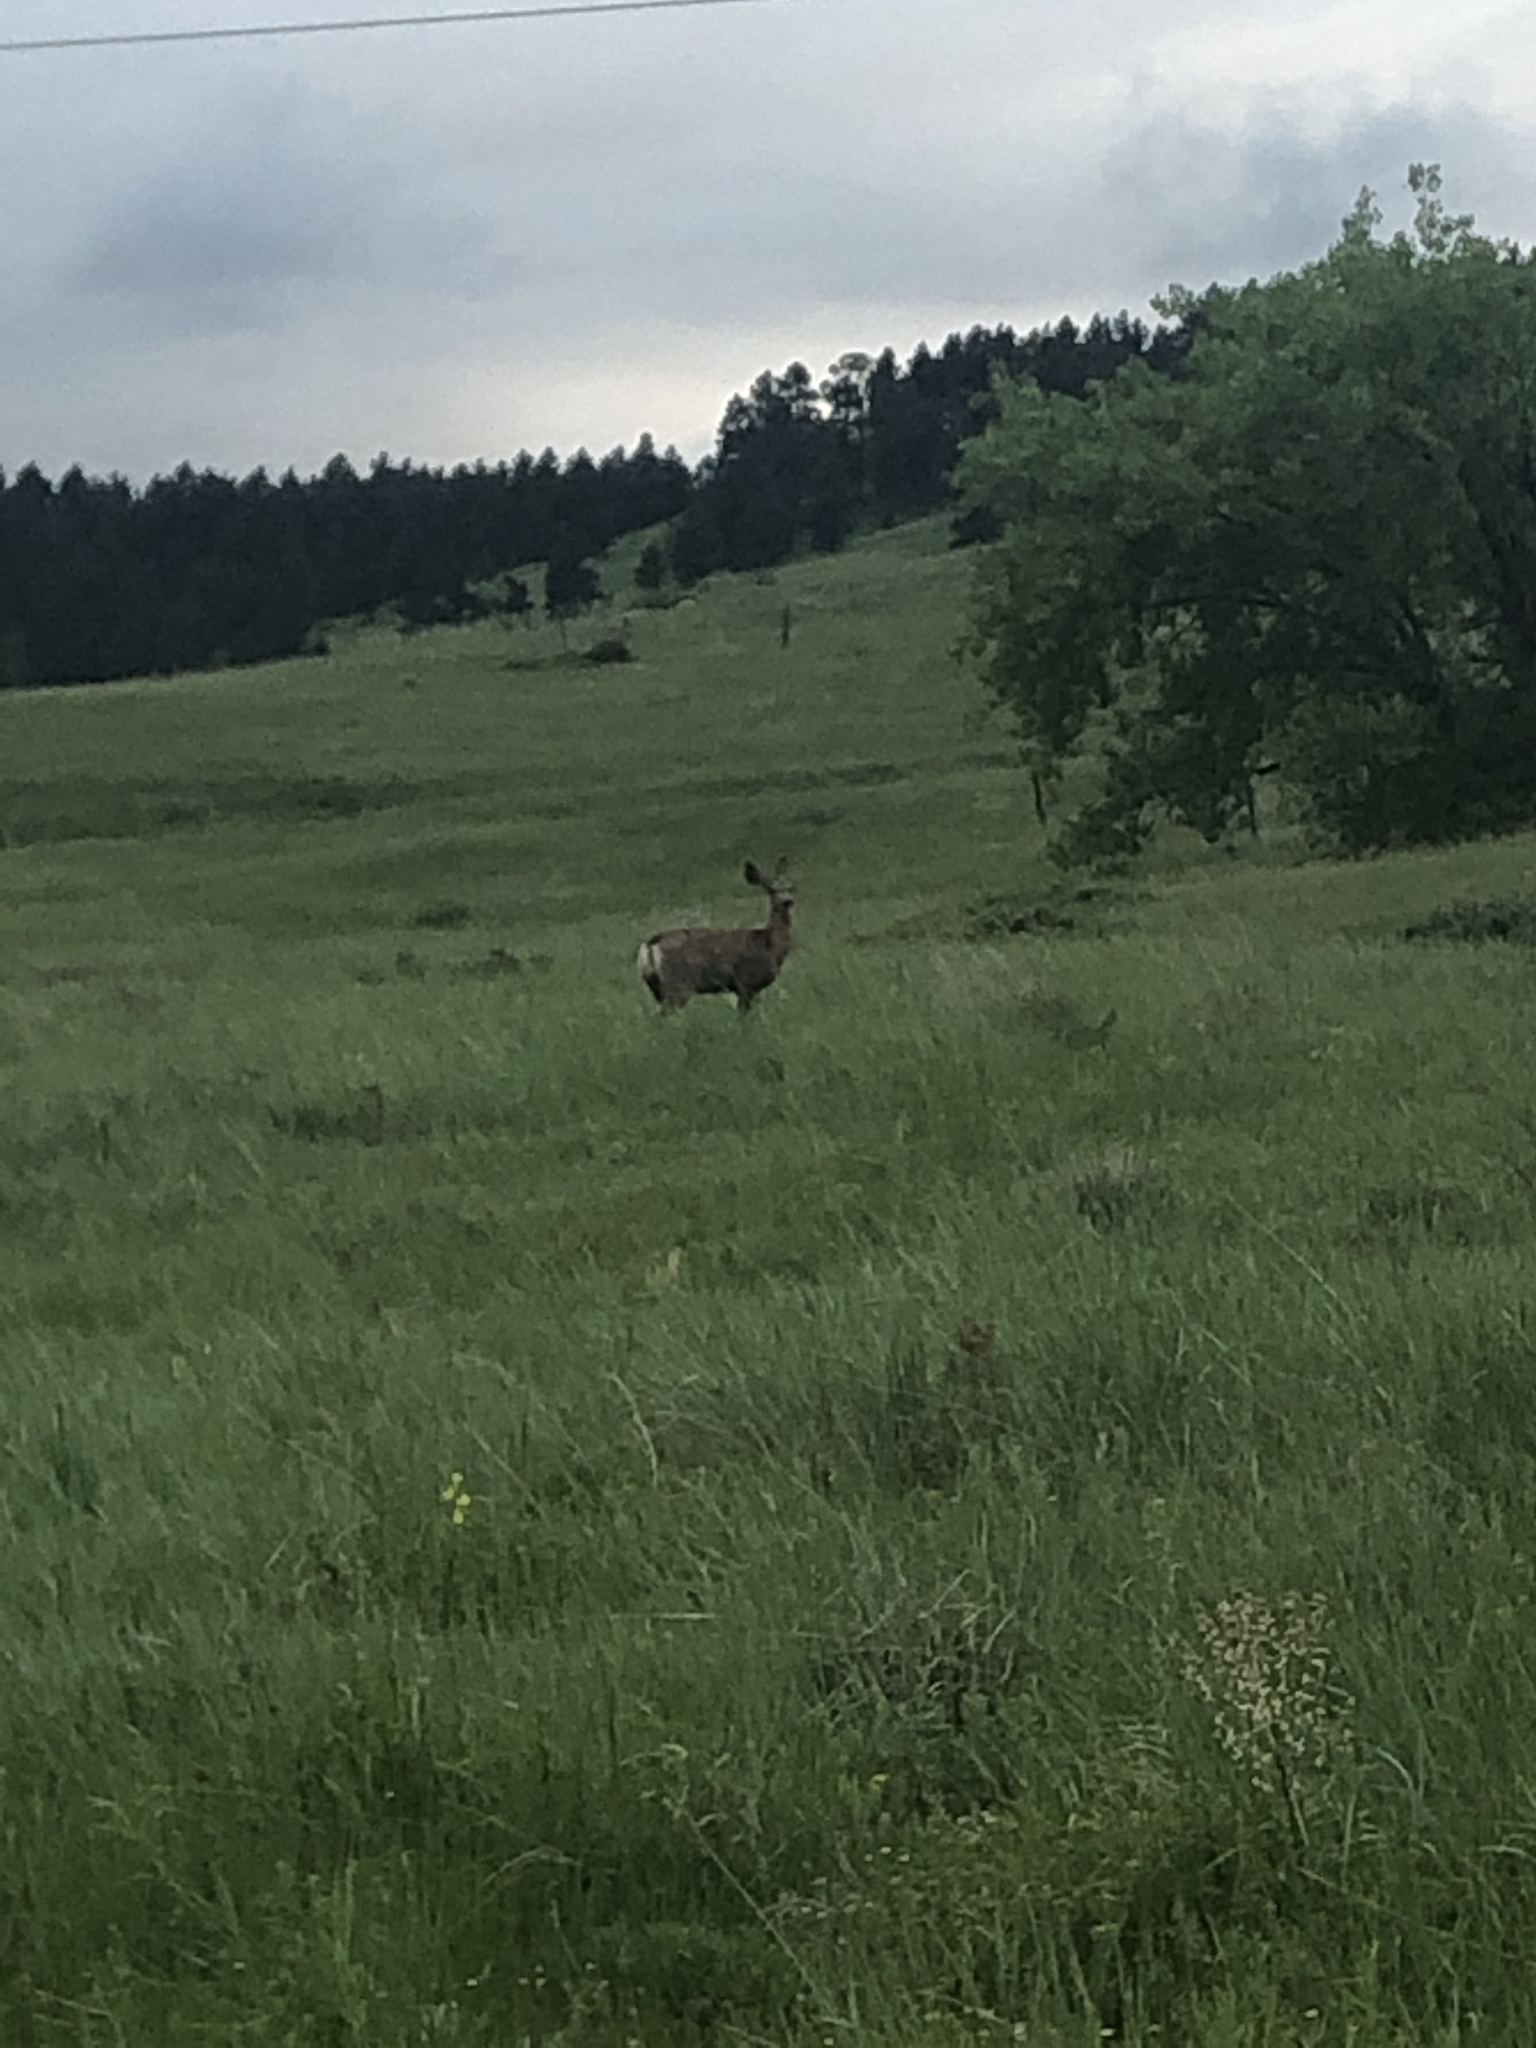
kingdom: Animalia
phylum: Chordata
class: Mammalia
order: Artiodactyla
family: Cervidae
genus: Odocoileus
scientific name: Odocoileus hemionus
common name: Mule deer
